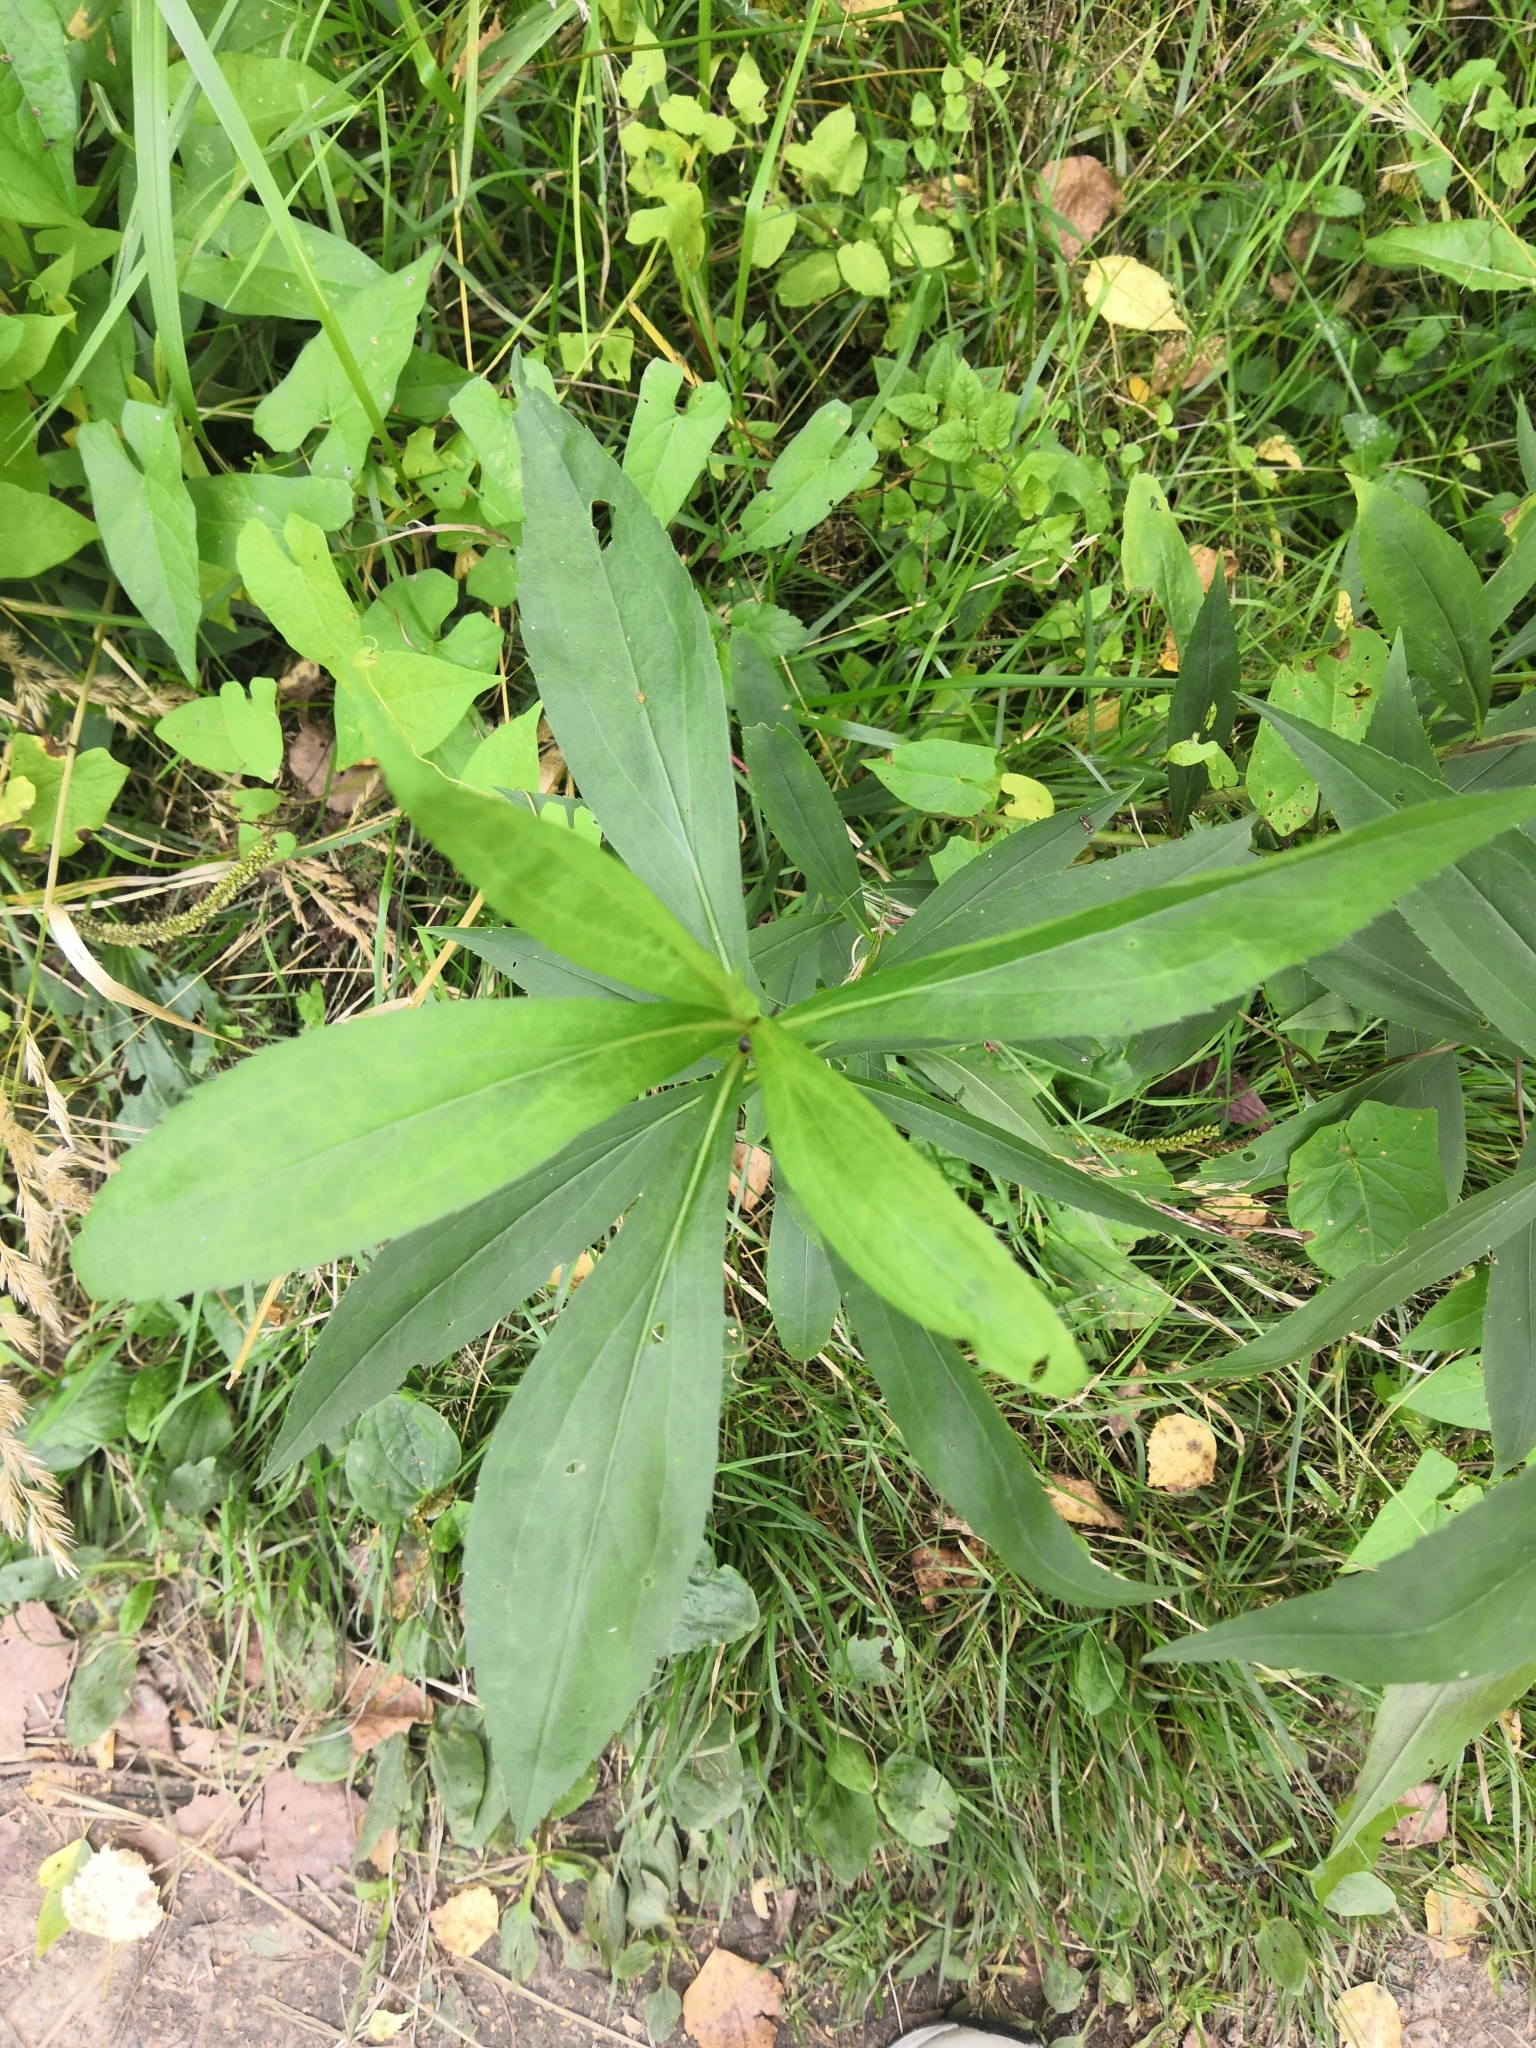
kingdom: Plantae
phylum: Tracheophyta
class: Magnoliopsida
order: Asterales
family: Asteraceae
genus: Solidago
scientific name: Solidago gigantea
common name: Giant goldenrod
